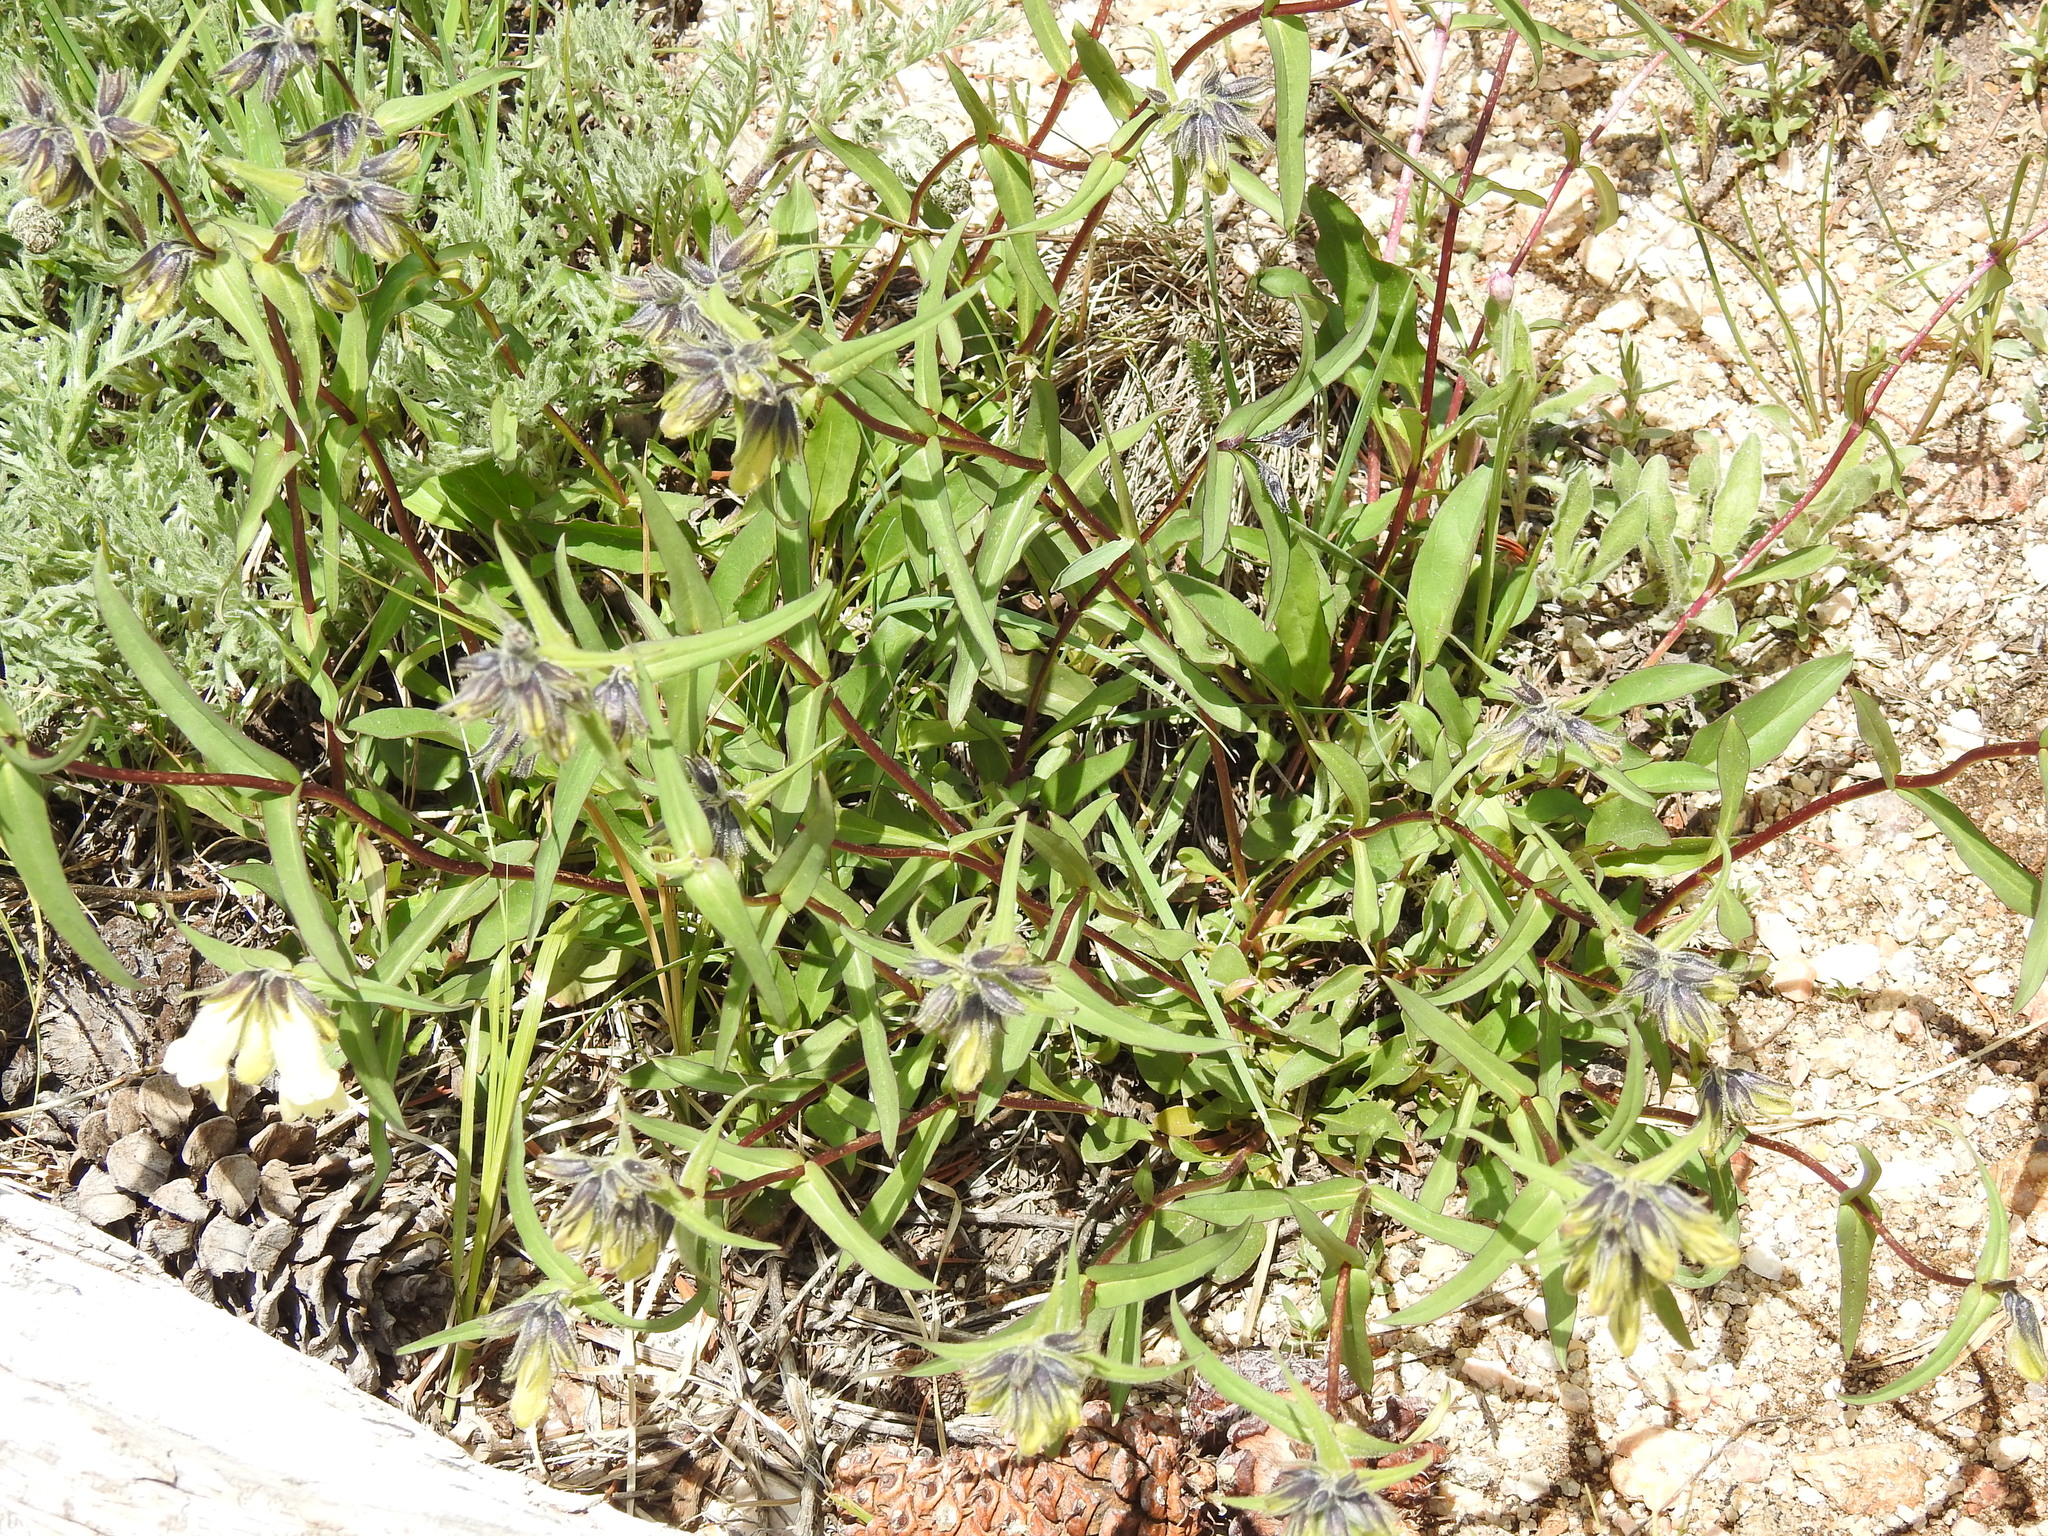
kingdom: Plantae
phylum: Tracheophyta
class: Magnoliopsida
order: Lamiales
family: Plantaginaceae
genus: Penstemon
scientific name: Penstemon whippleanus
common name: Whipple's penstemon
